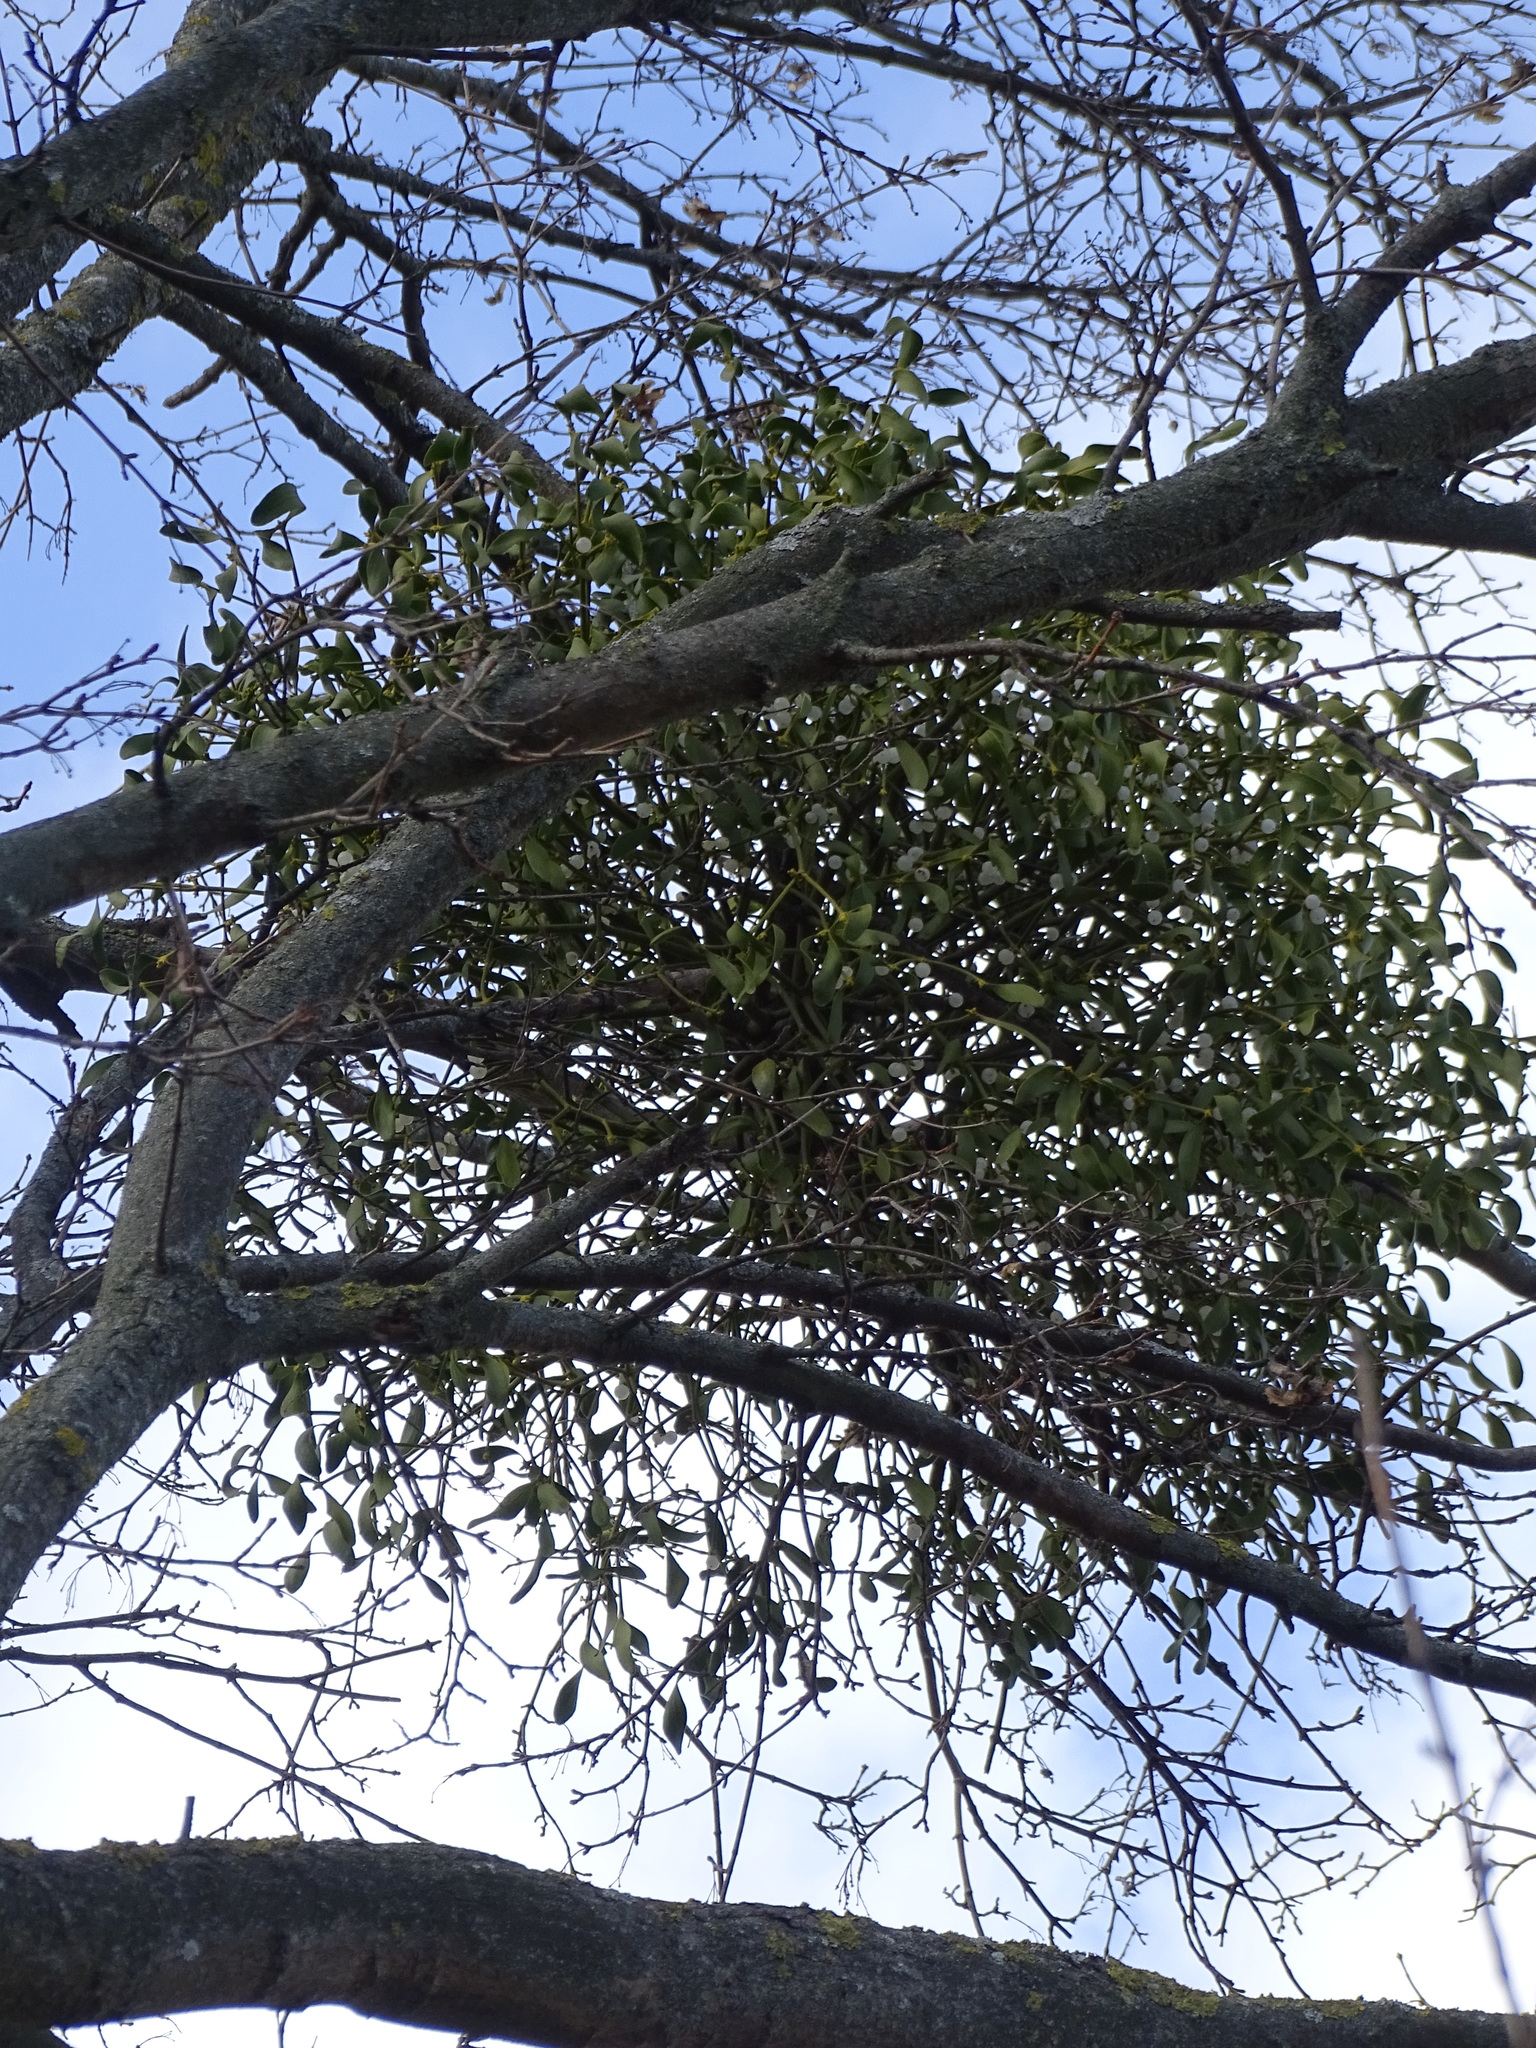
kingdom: Plantae
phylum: Tracheophyta
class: Magnoliopsida
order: Santalales
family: Viscaceae
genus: Viscum
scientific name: Viscum album
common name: Mistletoe
